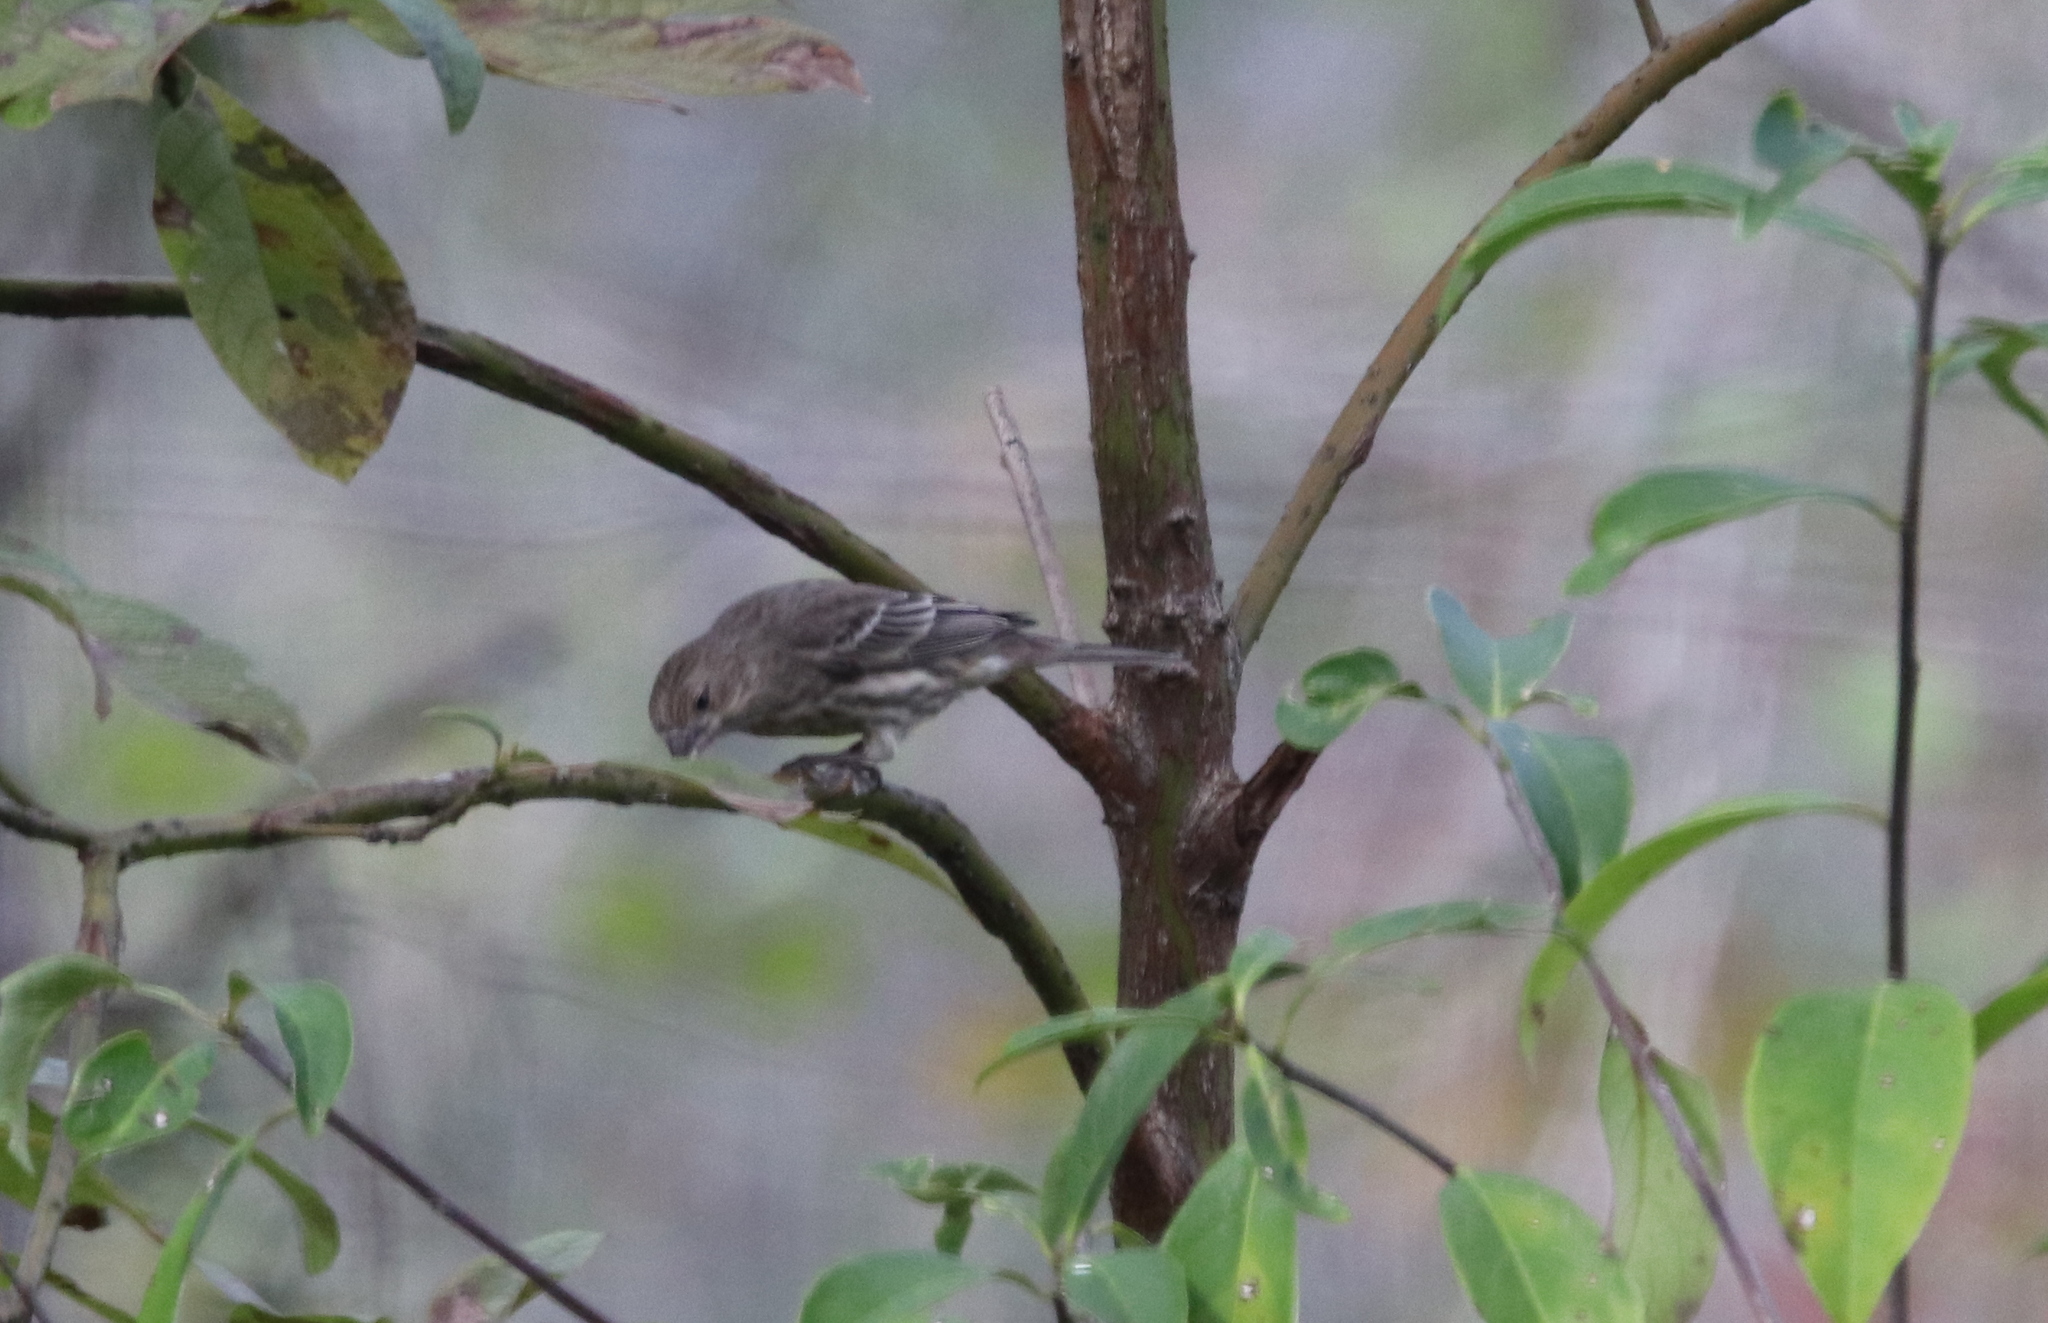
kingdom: Animalia
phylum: Chordata
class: Aves
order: Passeriformes
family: Fringillidae
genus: Haemorhous
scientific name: Haemorhous mexicanus
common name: House finch
